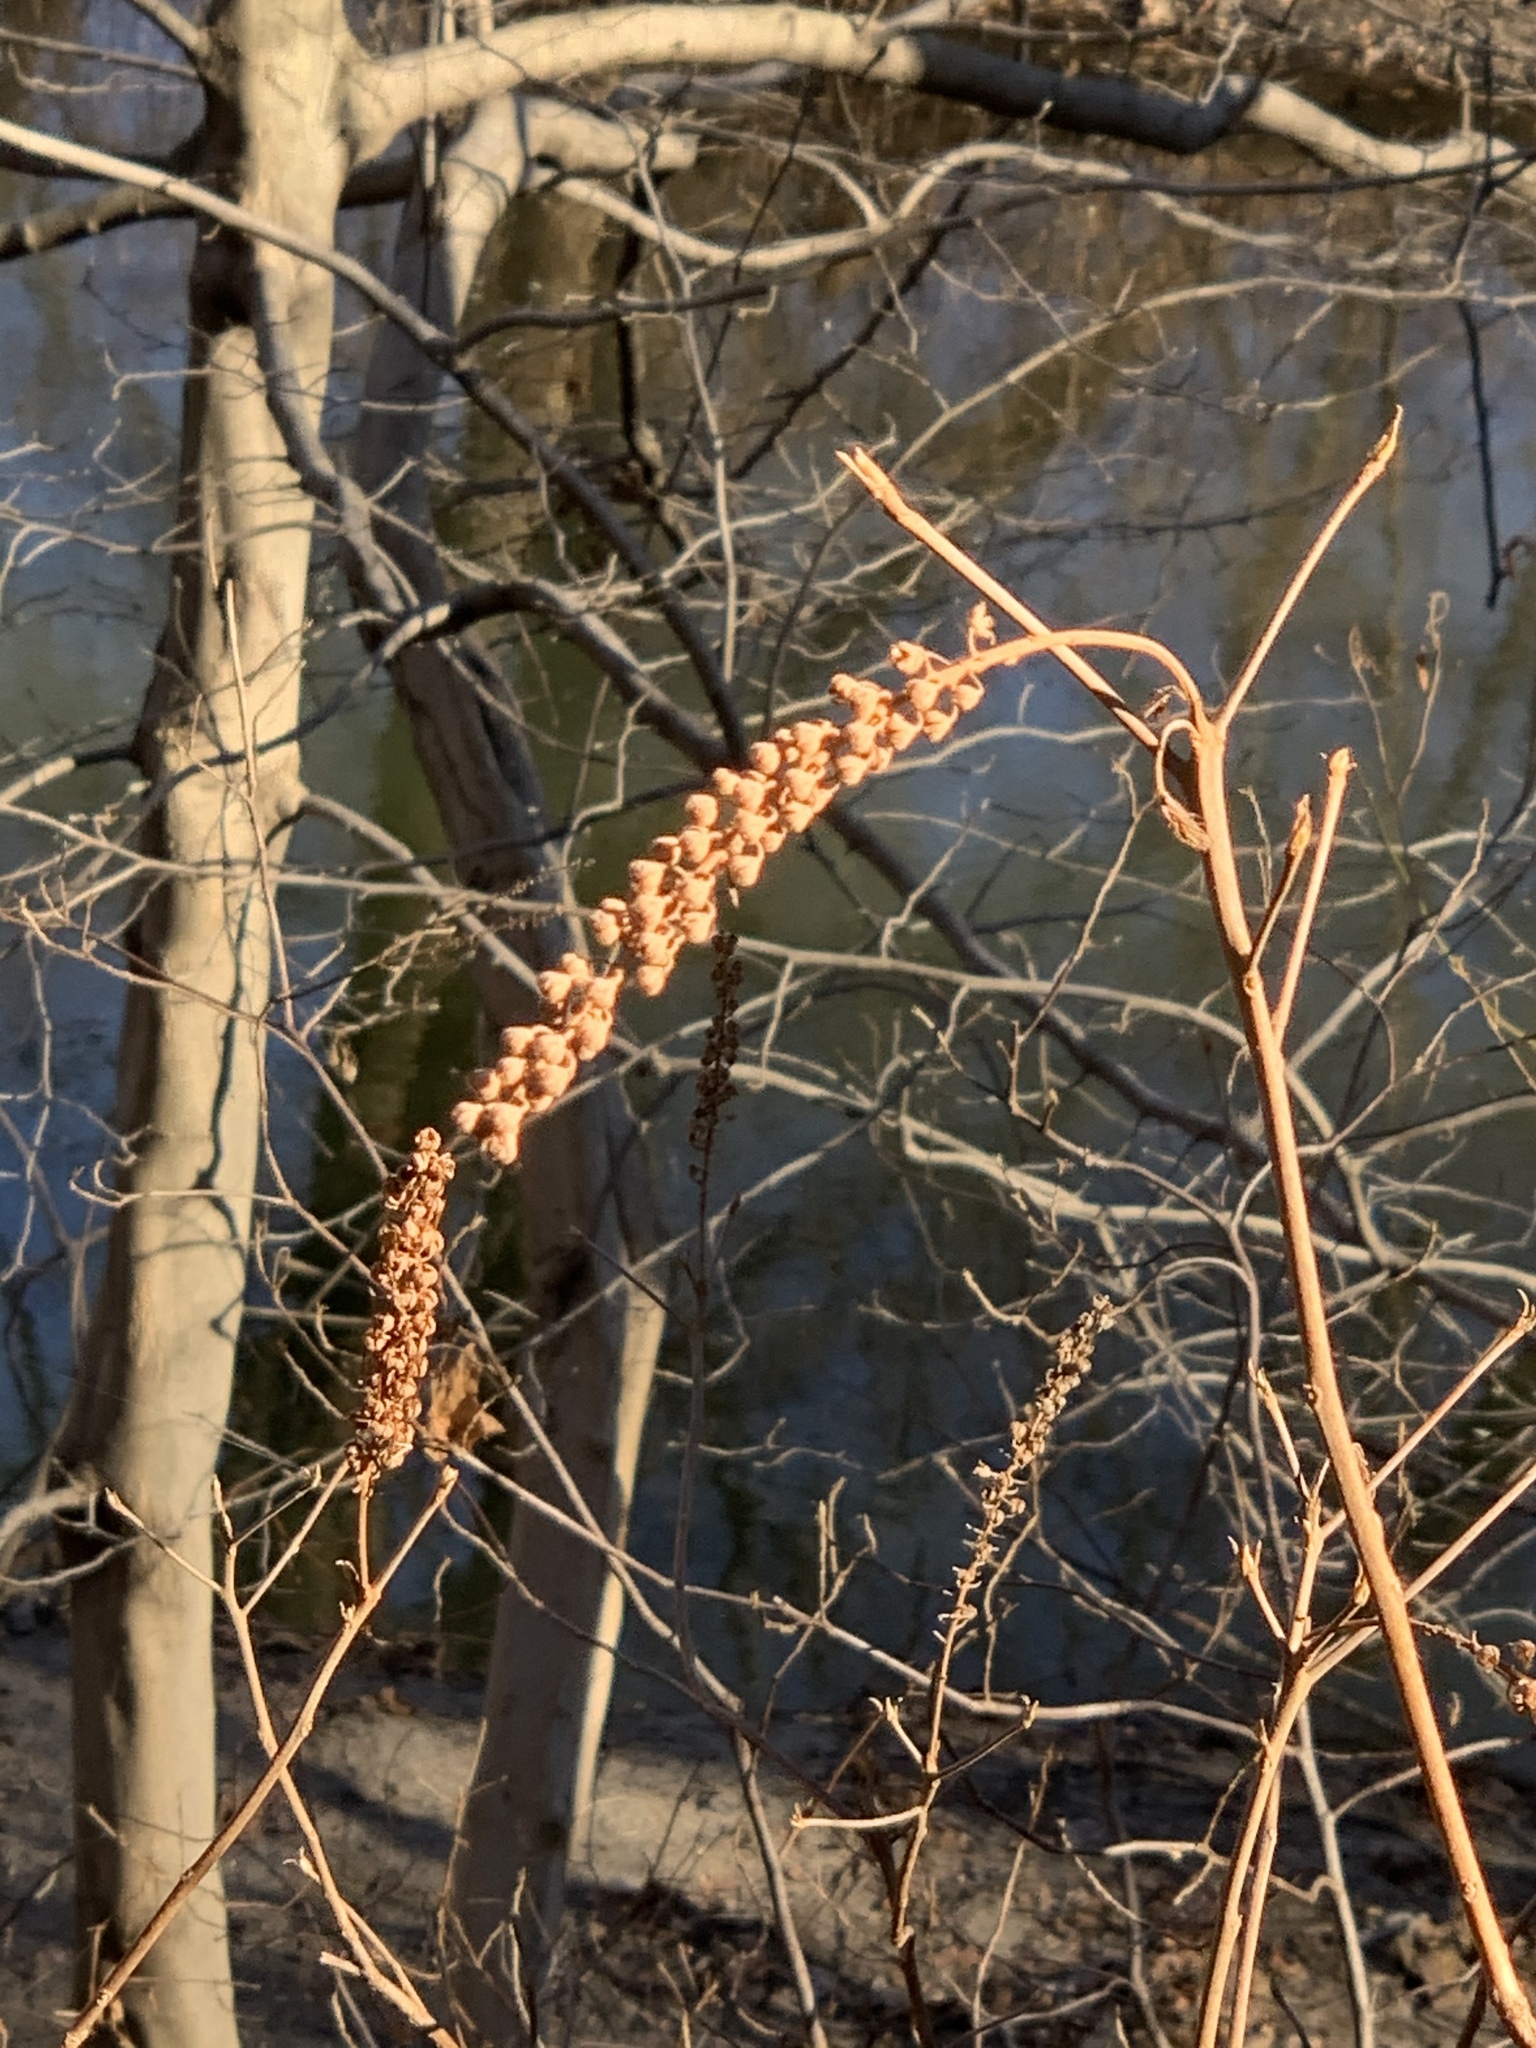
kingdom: Plantae
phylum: Tracheophyta
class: Magnoliopsida
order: Ericales
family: Clethraceae
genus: Clethra
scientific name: Clethra alnifolia
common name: Sweet pepperbush
